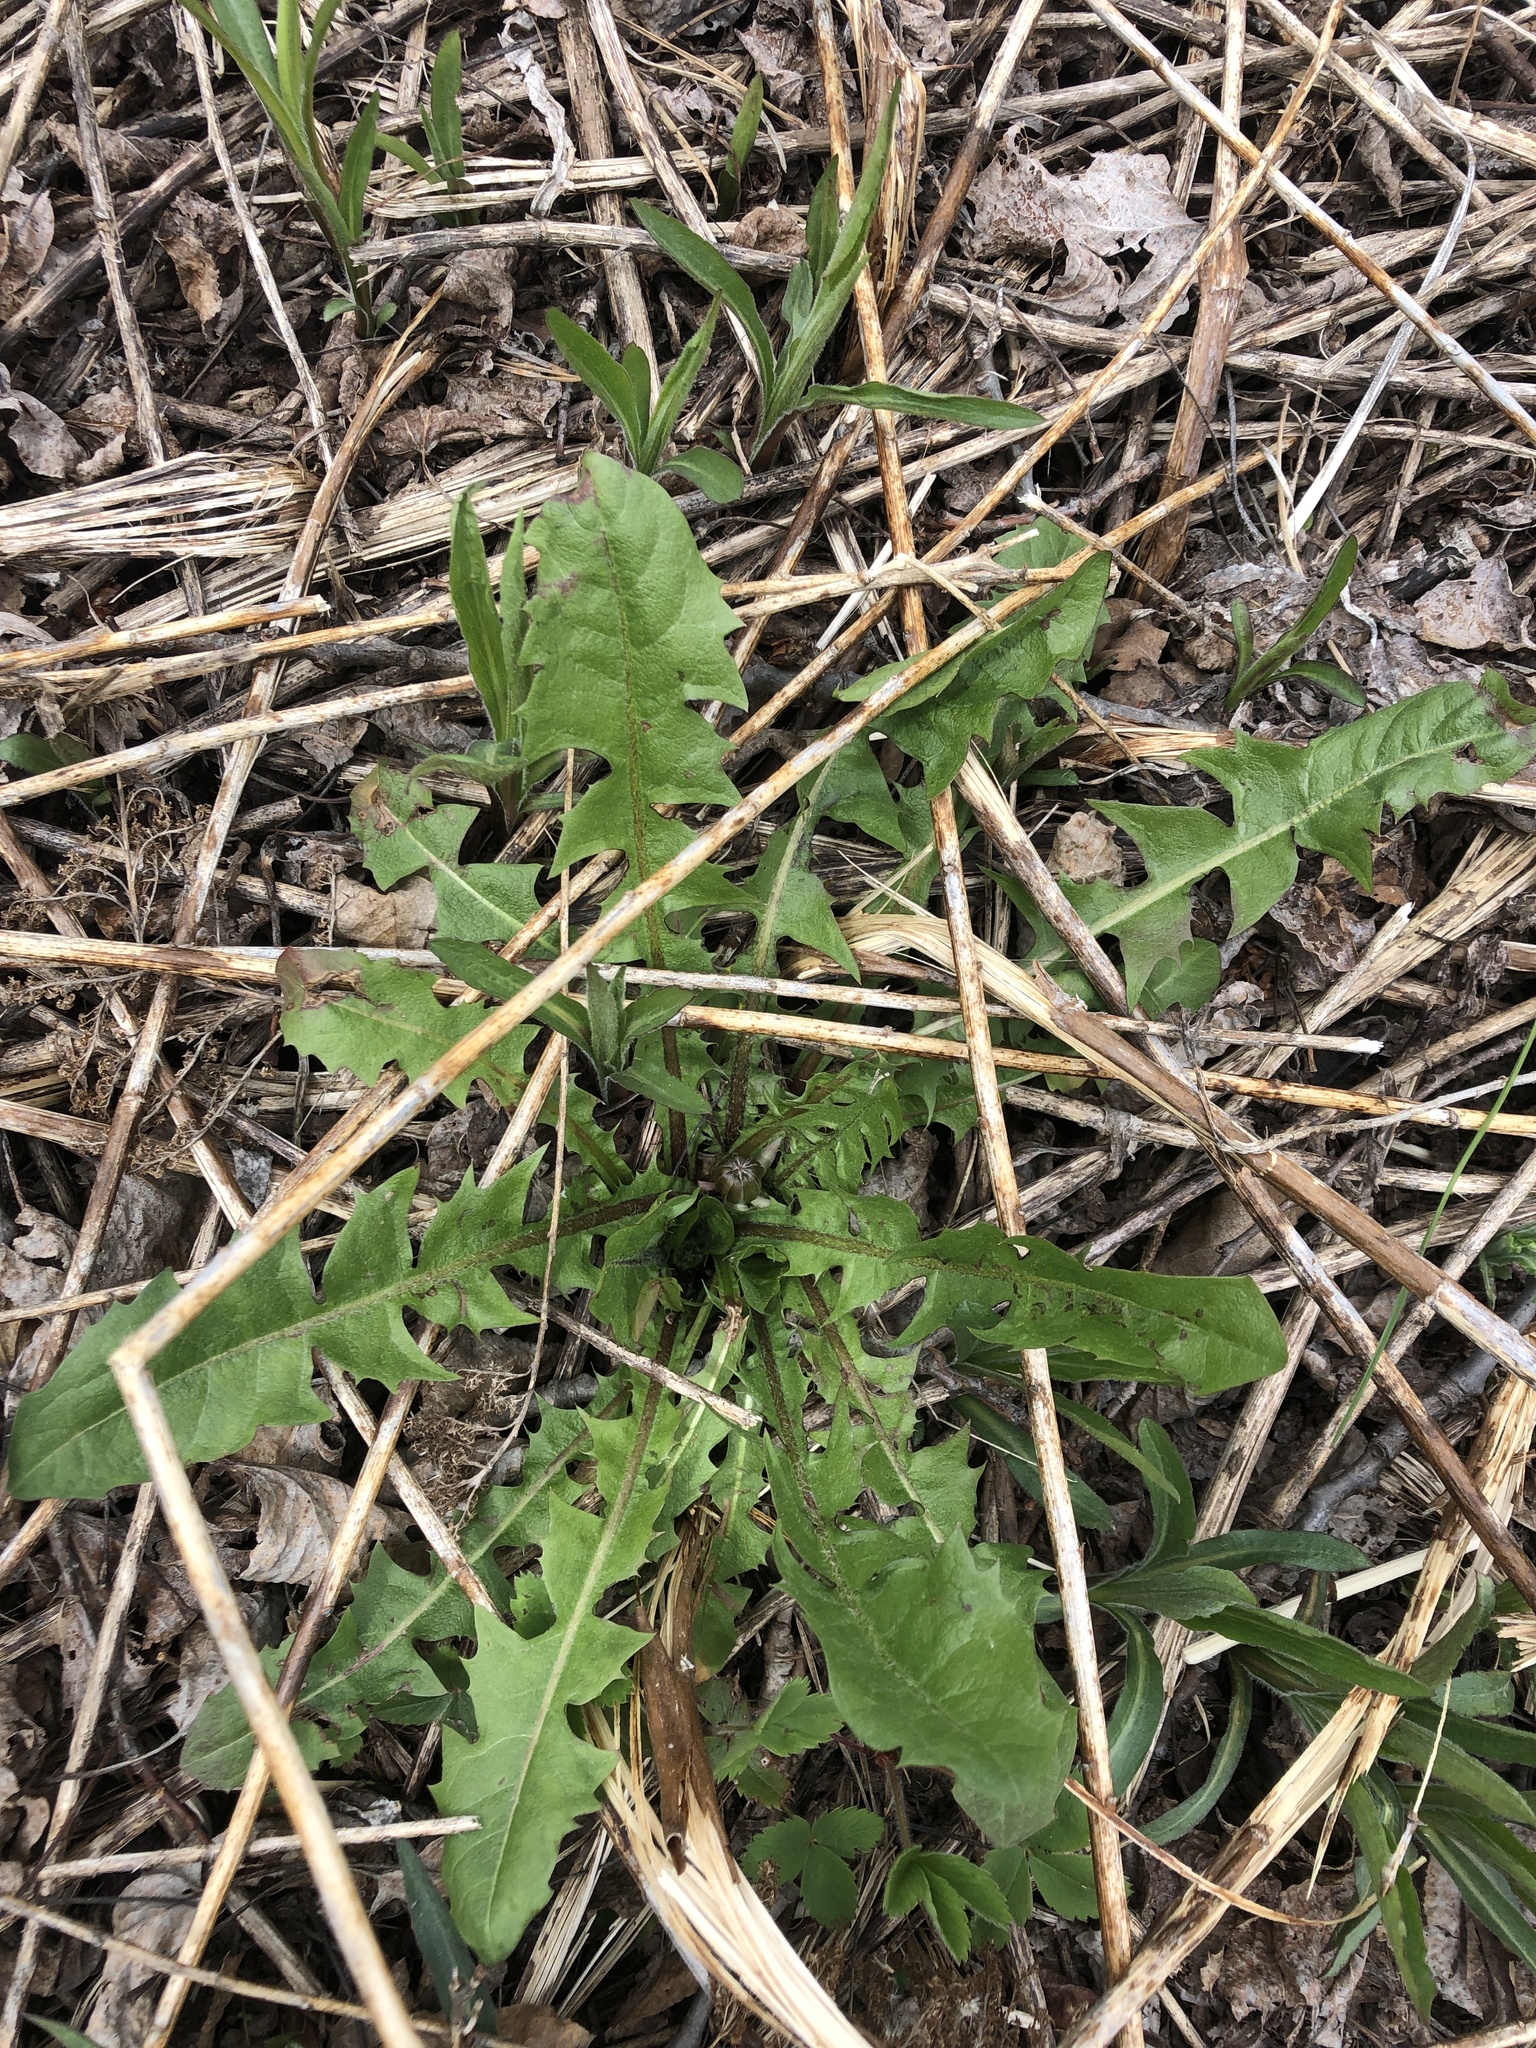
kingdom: Plantae
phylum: Tracheophyta
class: Magnoliopsida
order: Asterales
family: Asteraceae
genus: Taraxacum
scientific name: Taraxacum officinale
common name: Common dandelion
